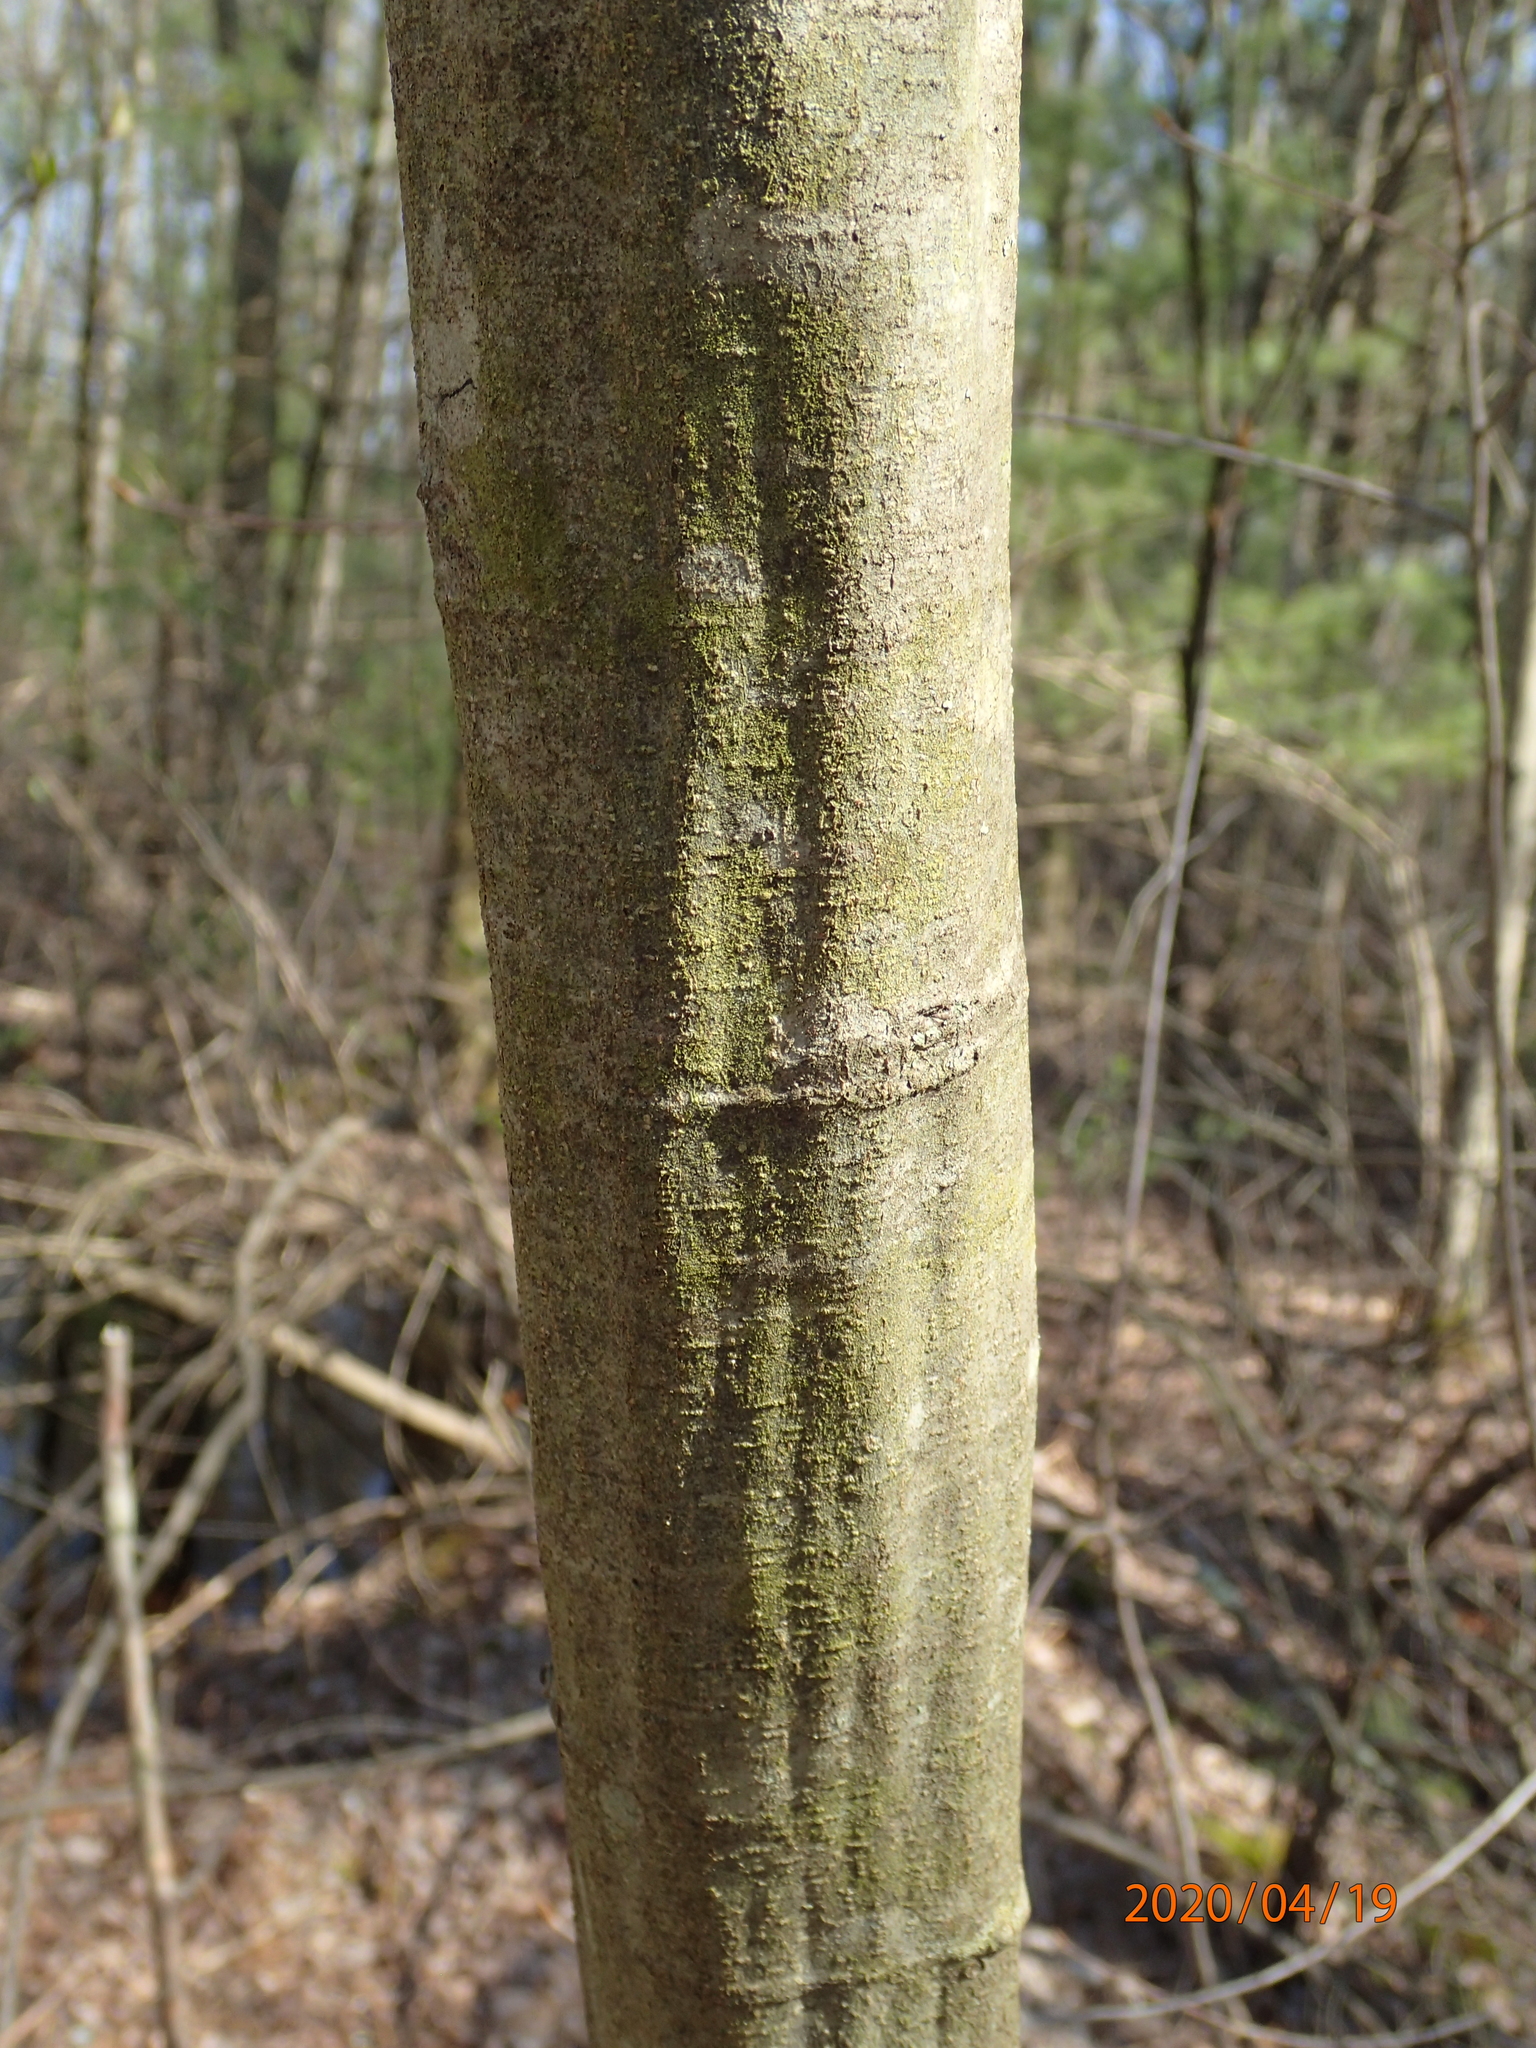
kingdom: Plantae
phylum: Tracheophyta
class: Magnoliopsida
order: Fagales
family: Betulaceae
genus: Carpinus
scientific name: Carpinus caroliniana
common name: American hornbeam
